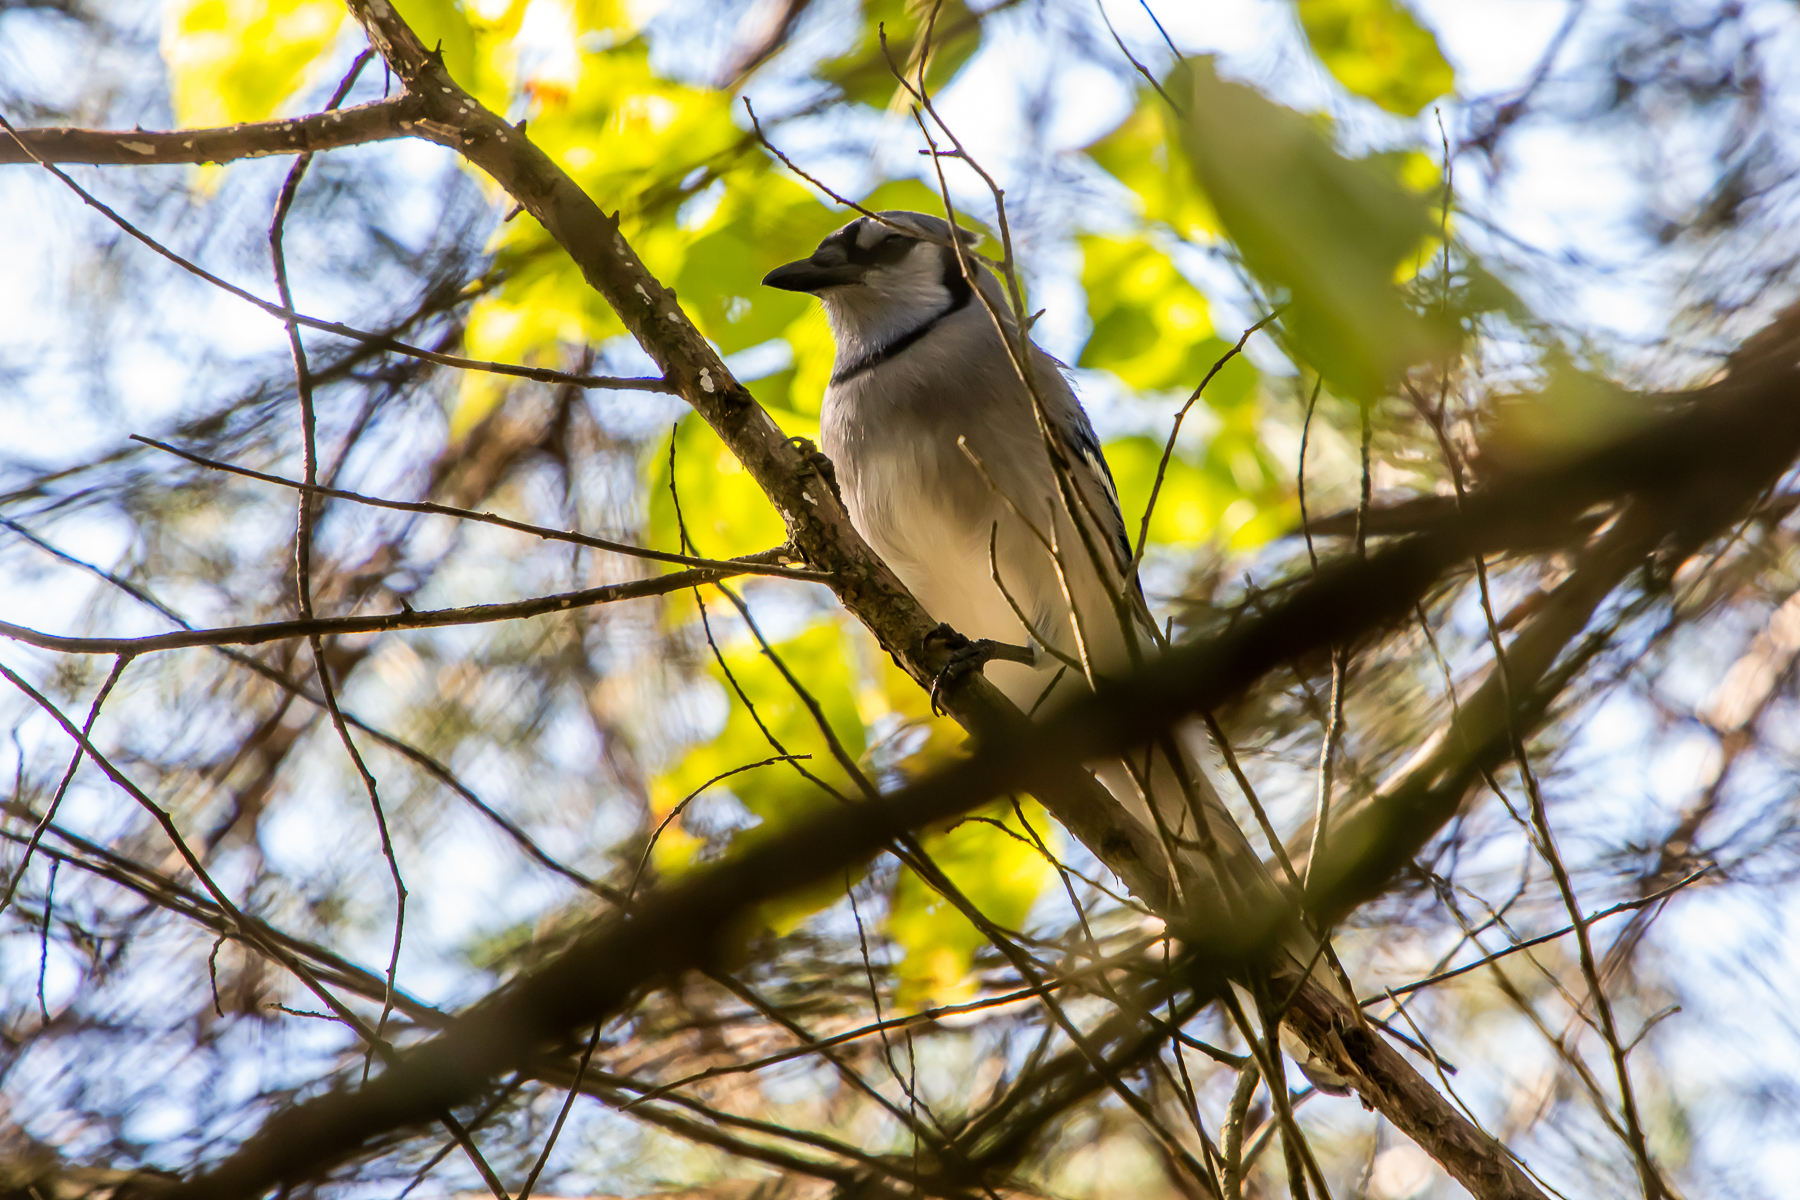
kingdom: Animalia
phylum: Chordata
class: Aves
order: Passeriformes
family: Corvidae
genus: Cyanocitta
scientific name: Cyanocitta cristata
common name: Blue jay
